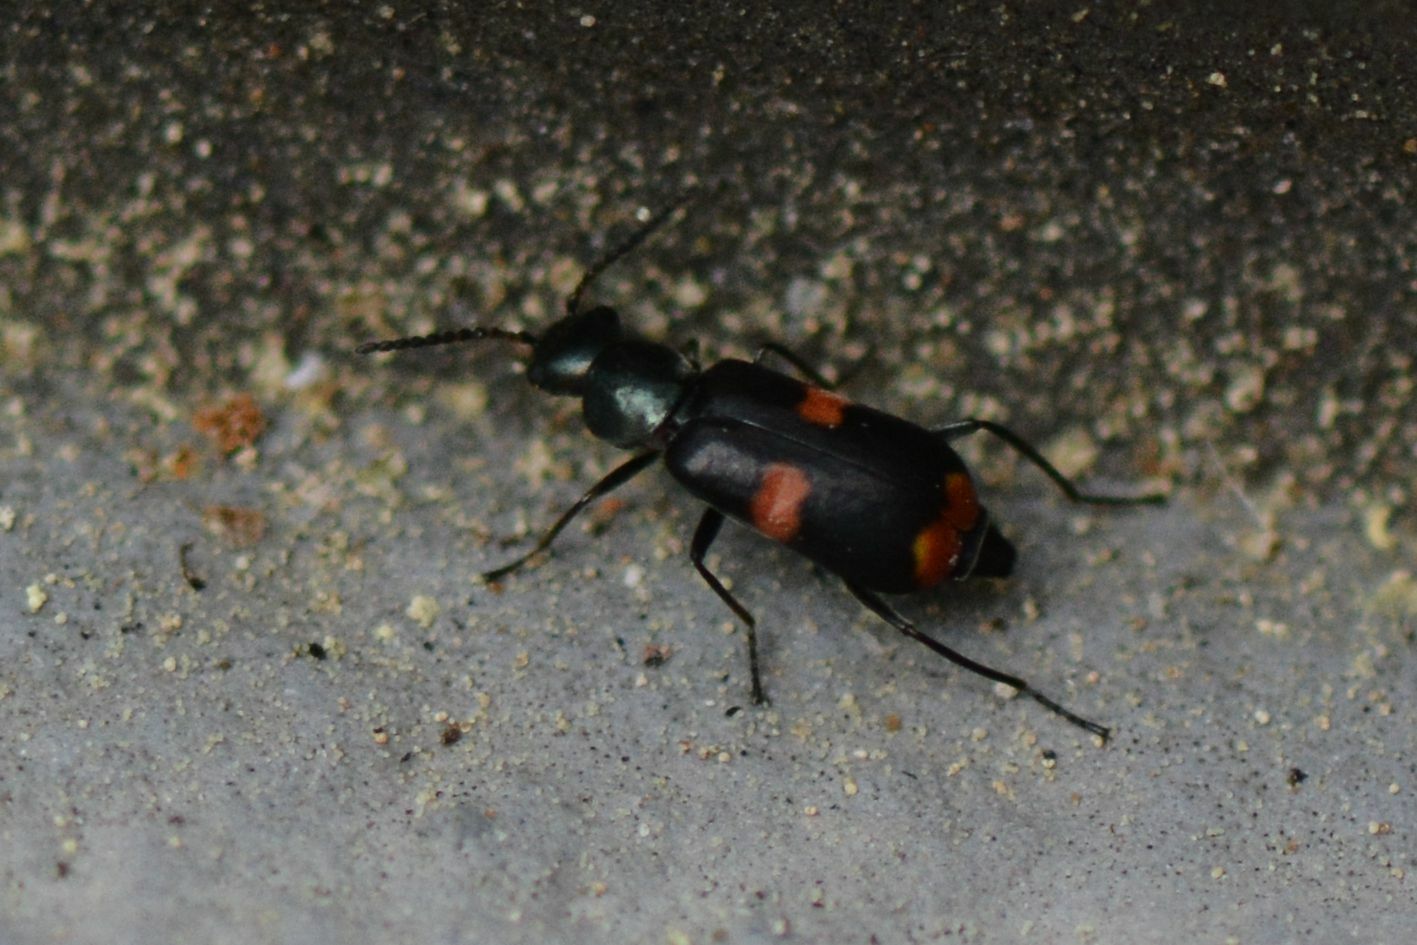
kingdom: Animalia
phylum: Arthropoda
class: Insecta
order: Coleoptera
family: Melyridae
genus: Anthocomus
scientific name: Anthocomus fasciatus
